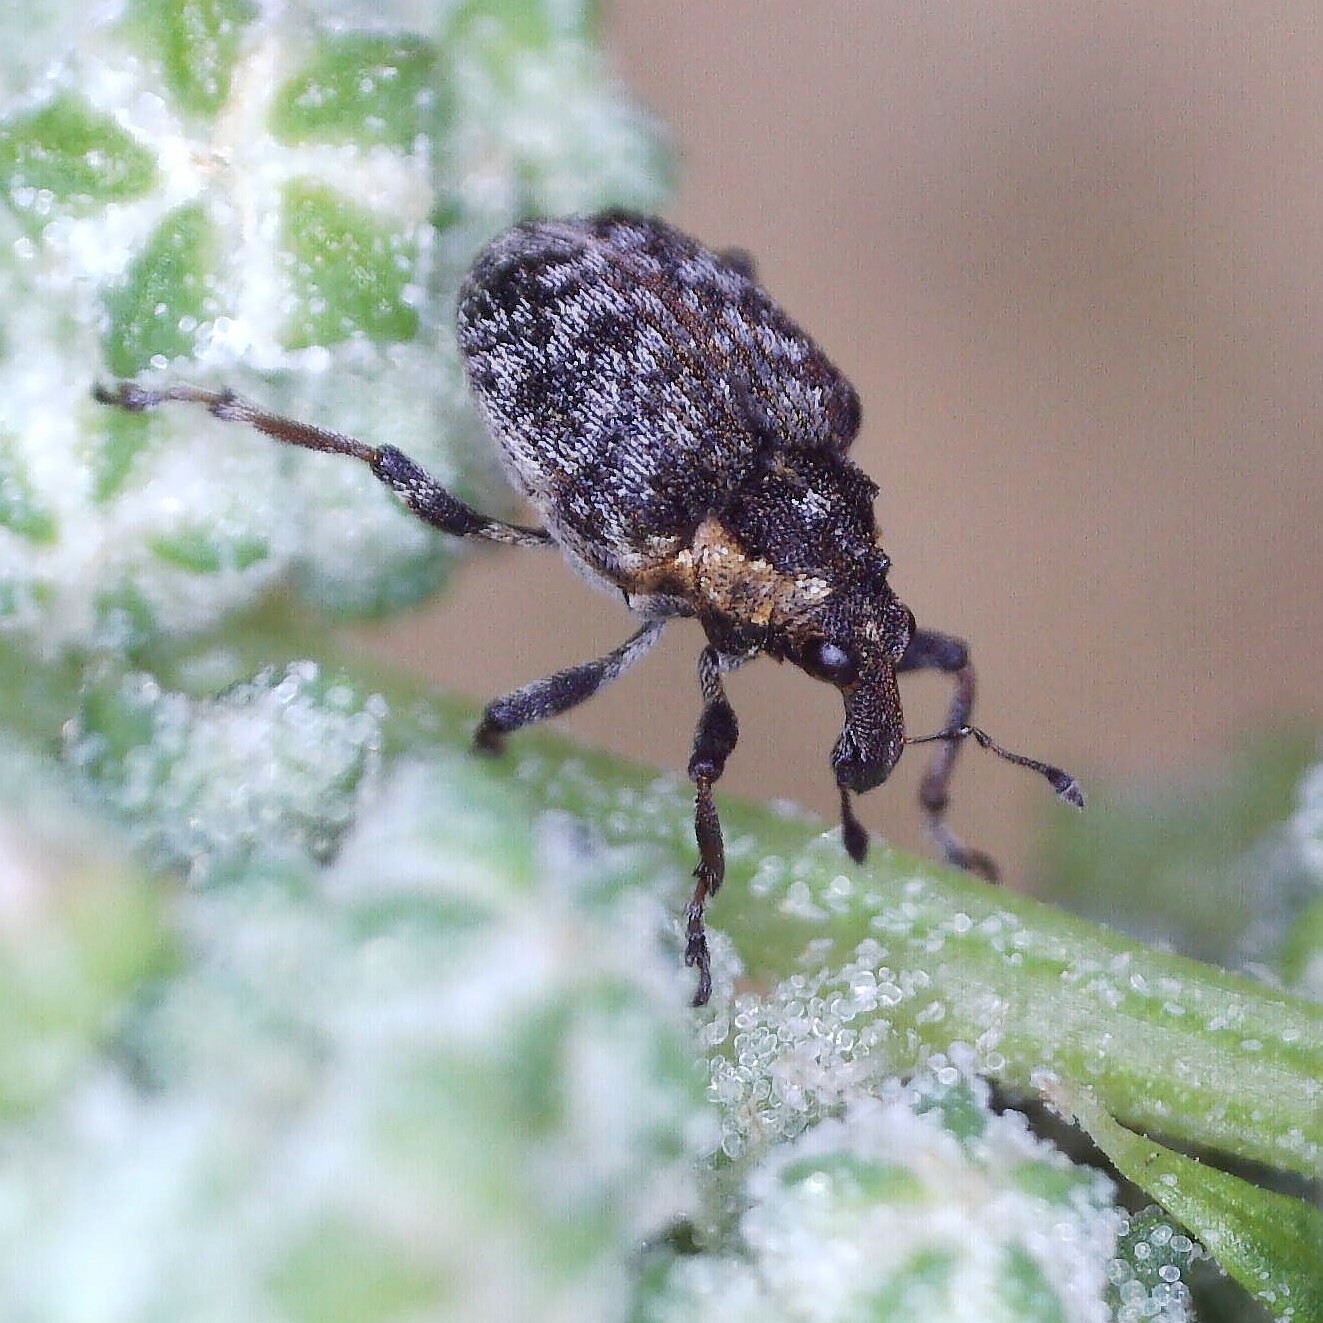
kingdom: Animalia
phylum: Arthropoda
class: Insecta
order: Coleoptera
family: Curculionidae
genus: Pelenomus
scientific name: Pelenomus quadrituberculatus
